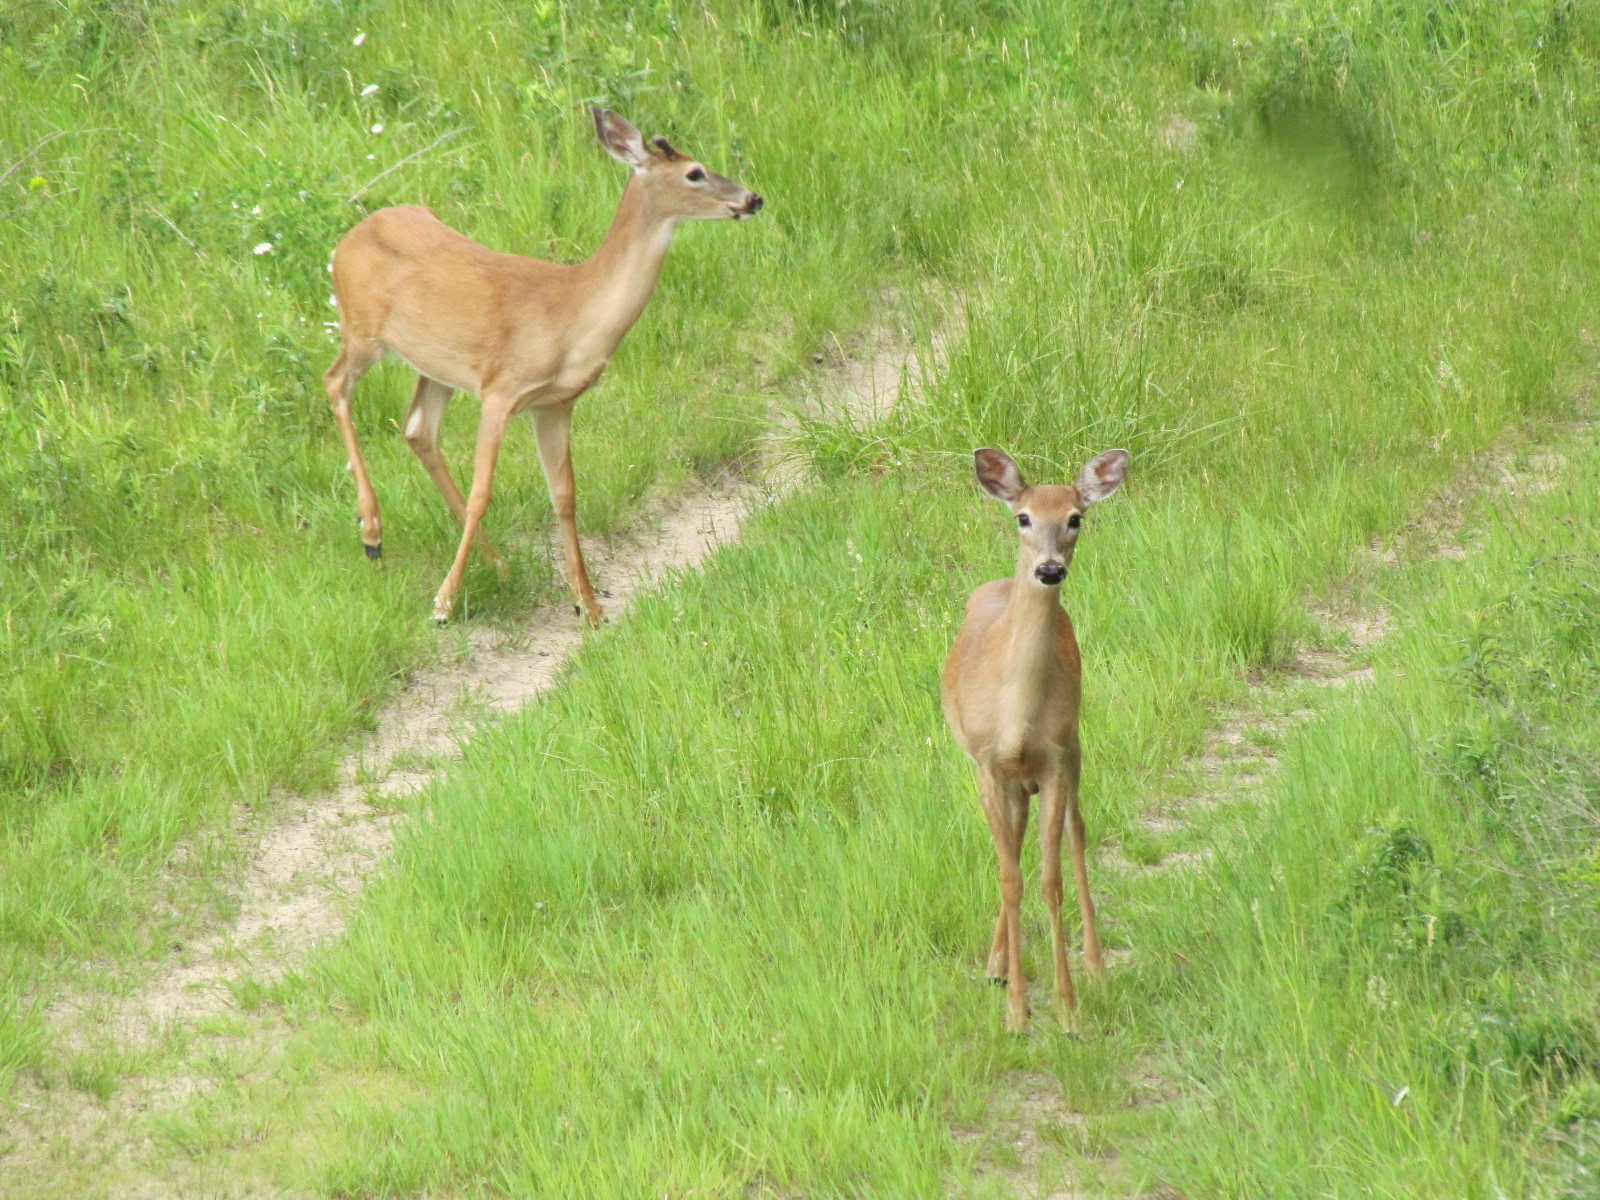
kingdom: Animalia
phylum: Chordata
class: Mammalia
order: Artiodactyla
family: Cervidae
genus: Odocoileus
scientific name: Odocoileus virginianus
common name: White-tailed deer
